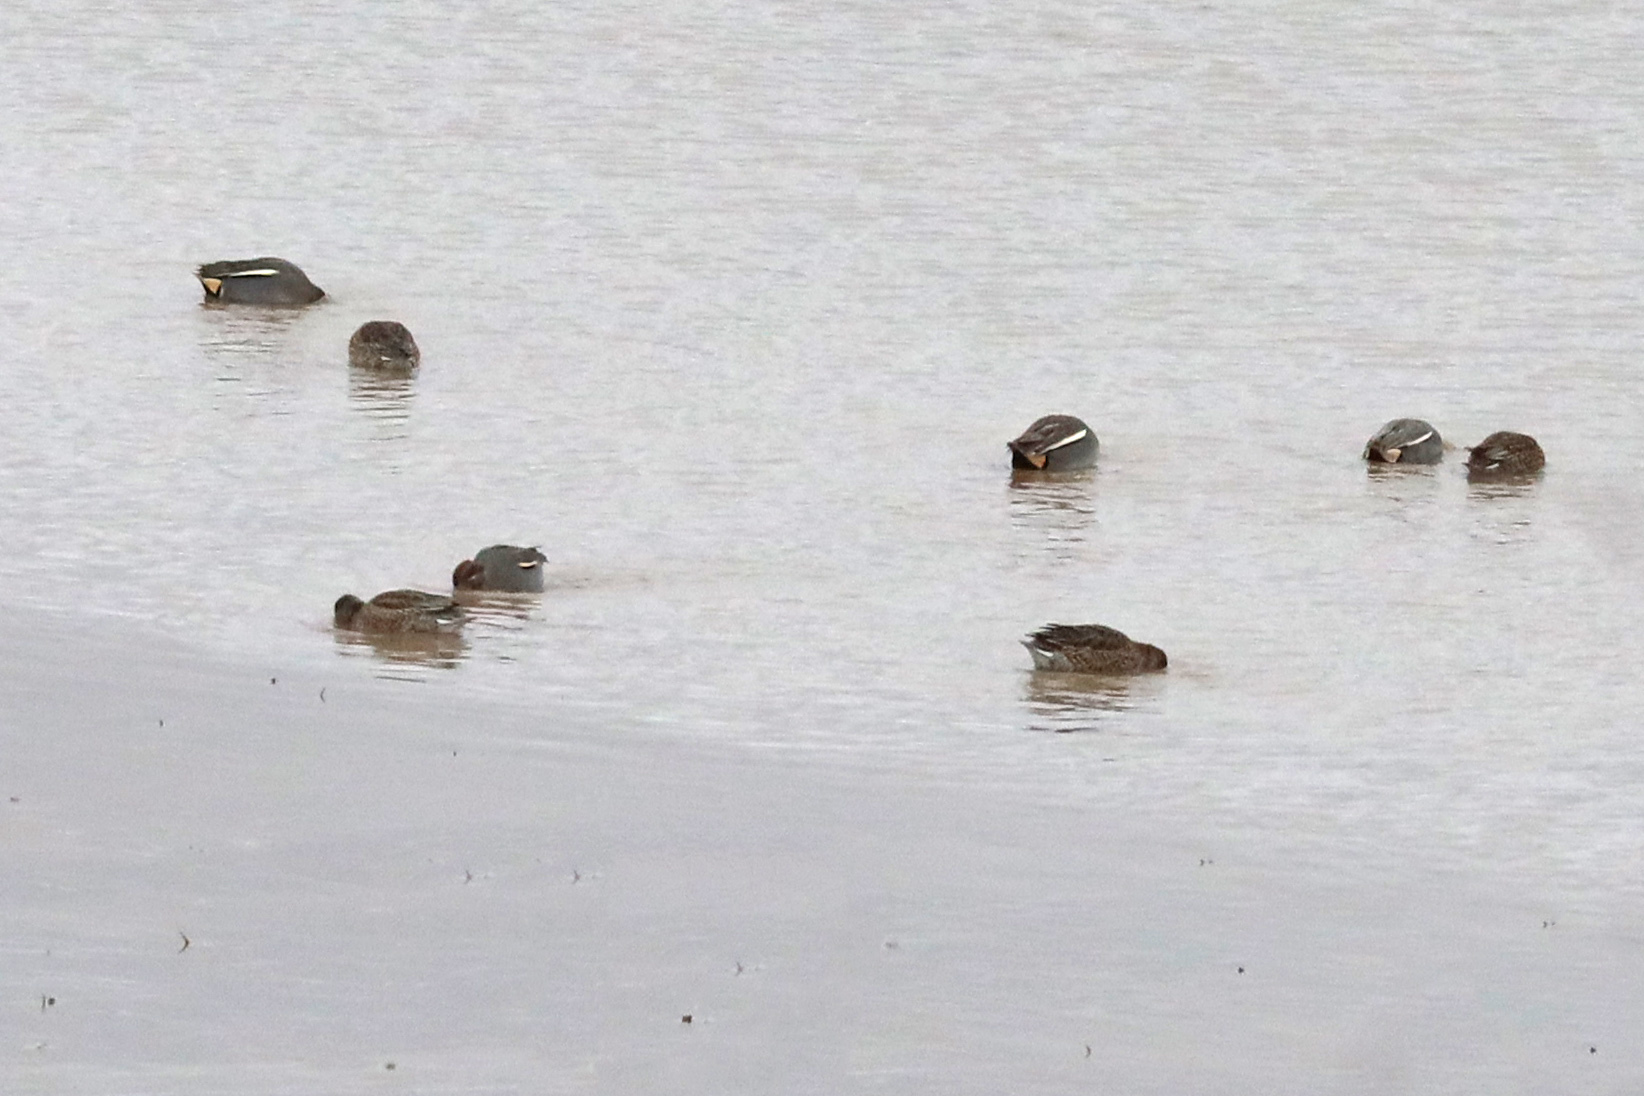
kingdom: Animalia
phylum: Chordata
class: Aves
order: Anseriformes
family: Anatidae
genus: Anas
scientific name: Anas crecca
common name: Eurasian teal
